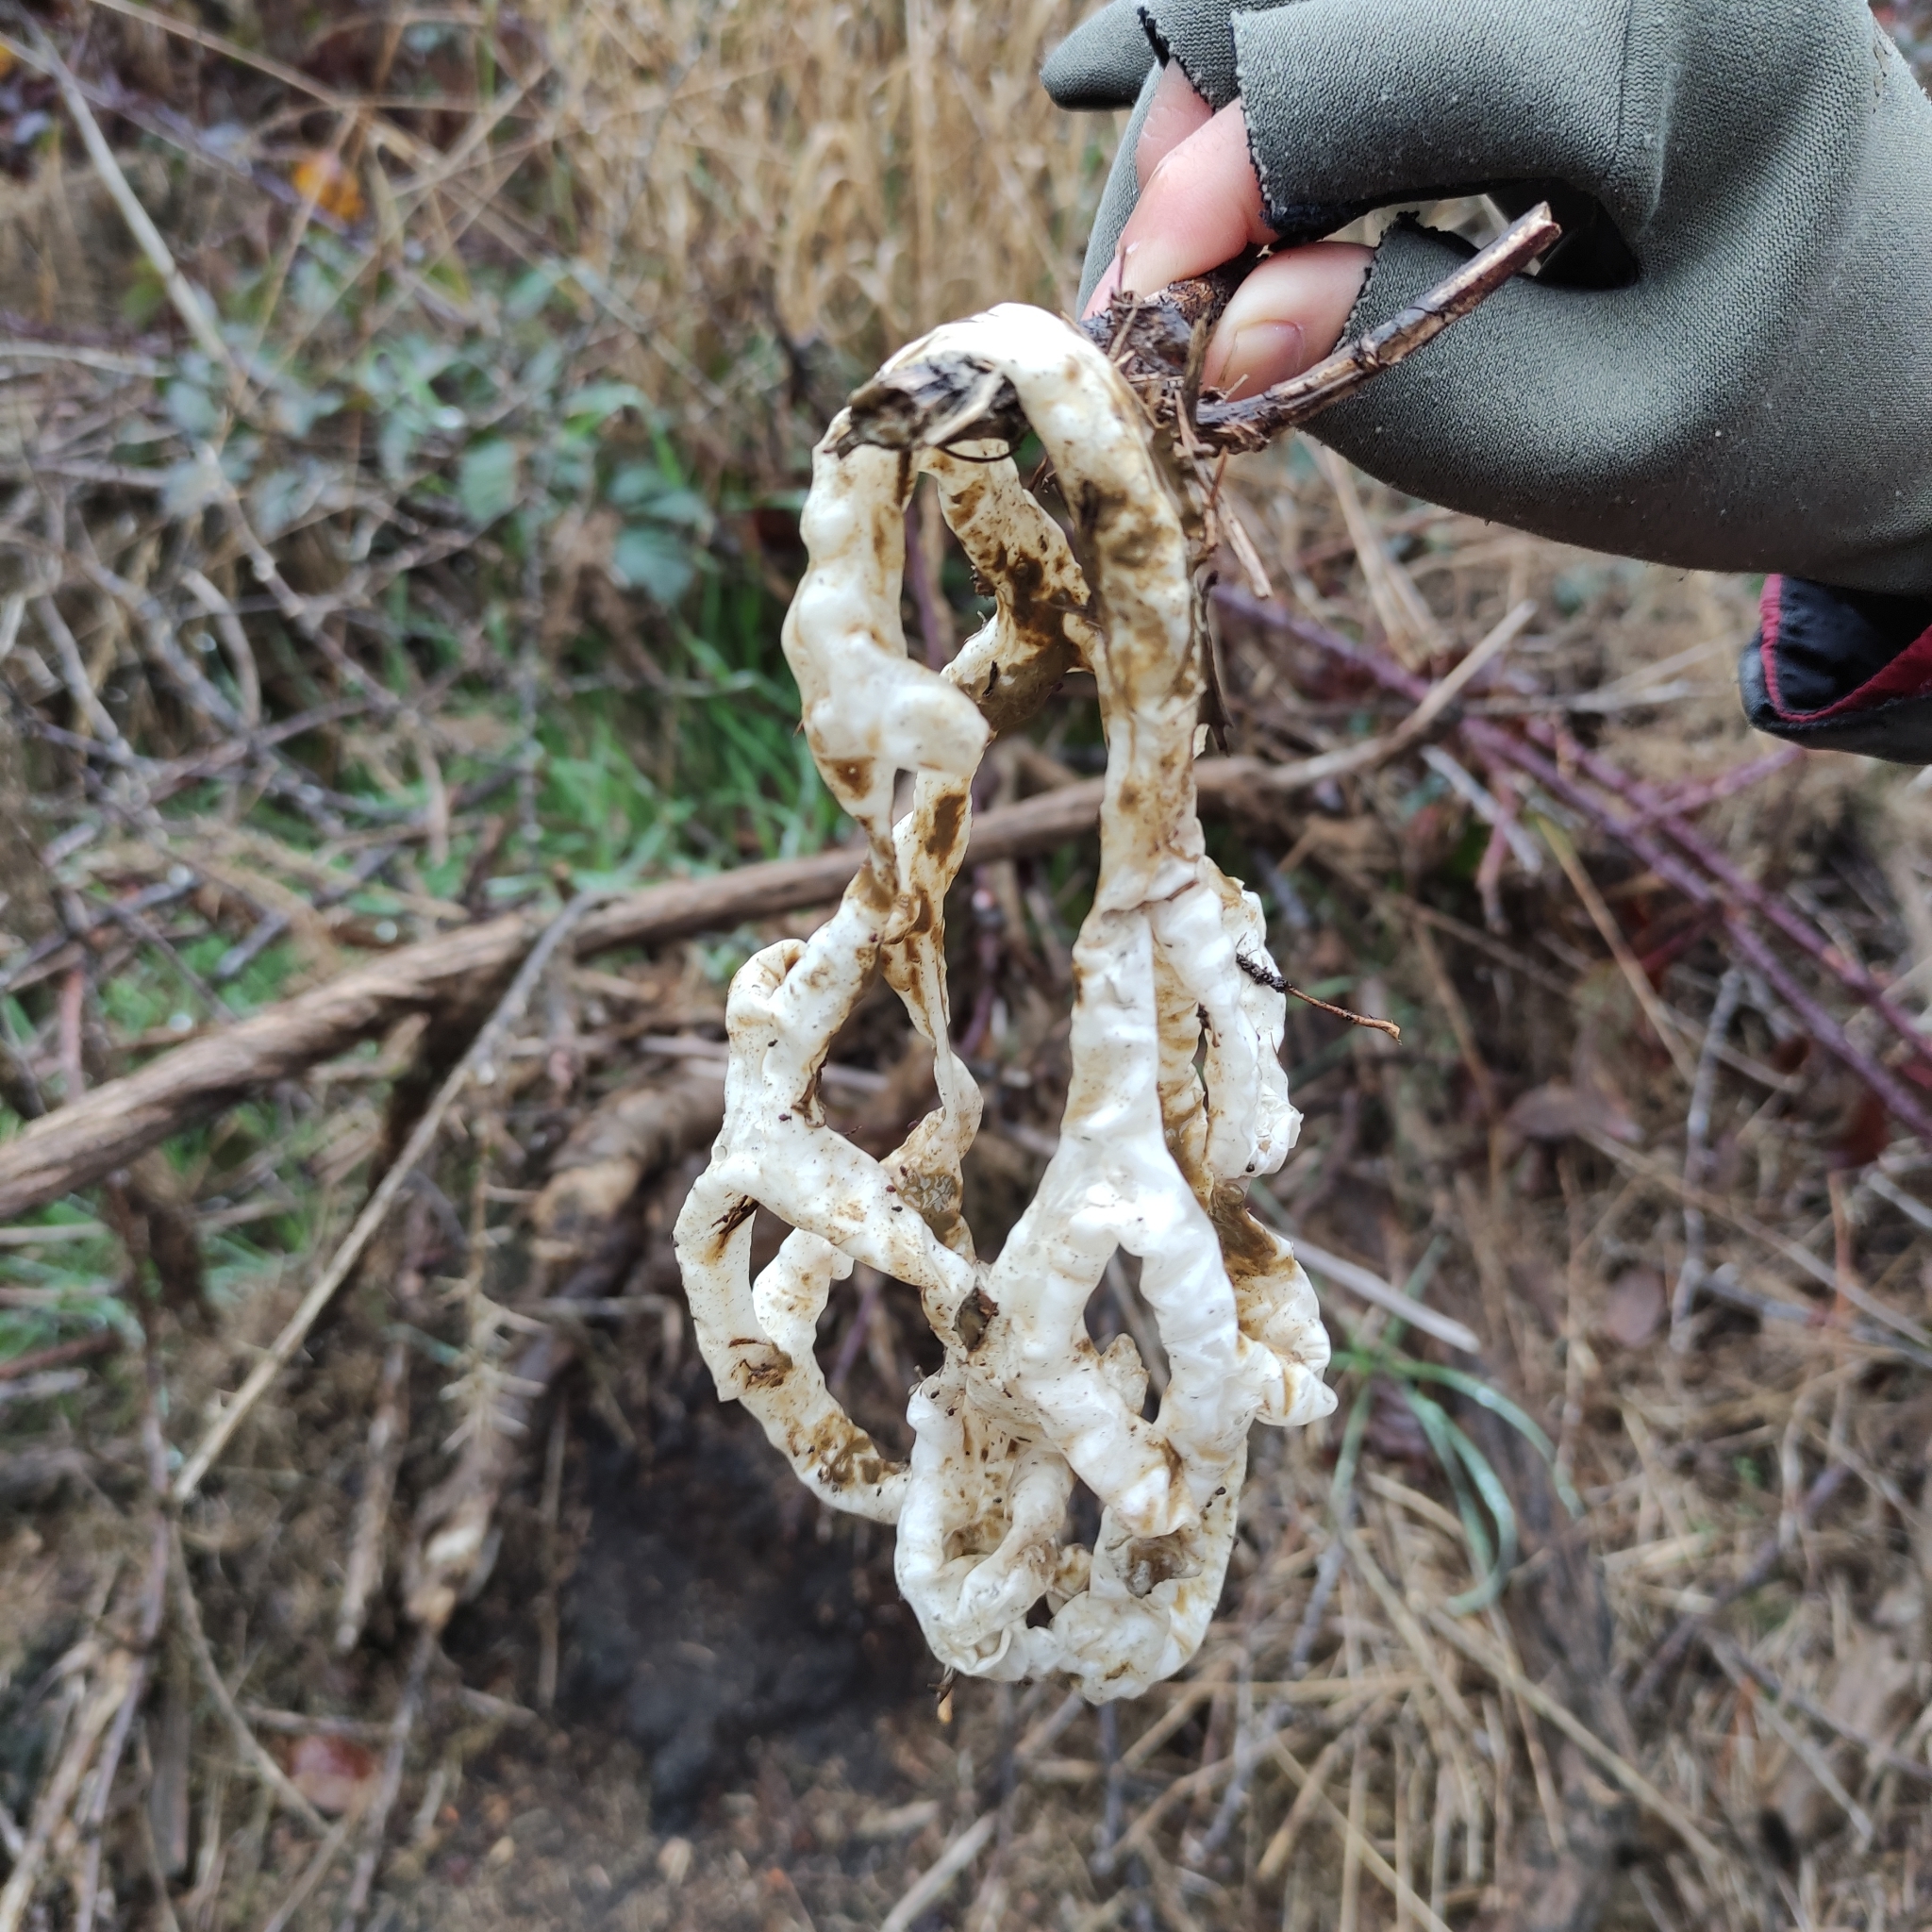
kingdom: Fungi
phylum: Basidiomycota
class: Agaricomycetes
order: Phallales
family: Phallaceae
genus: Ileodictyon
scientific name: Ileodictyon cibarium
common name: Basket fungus
